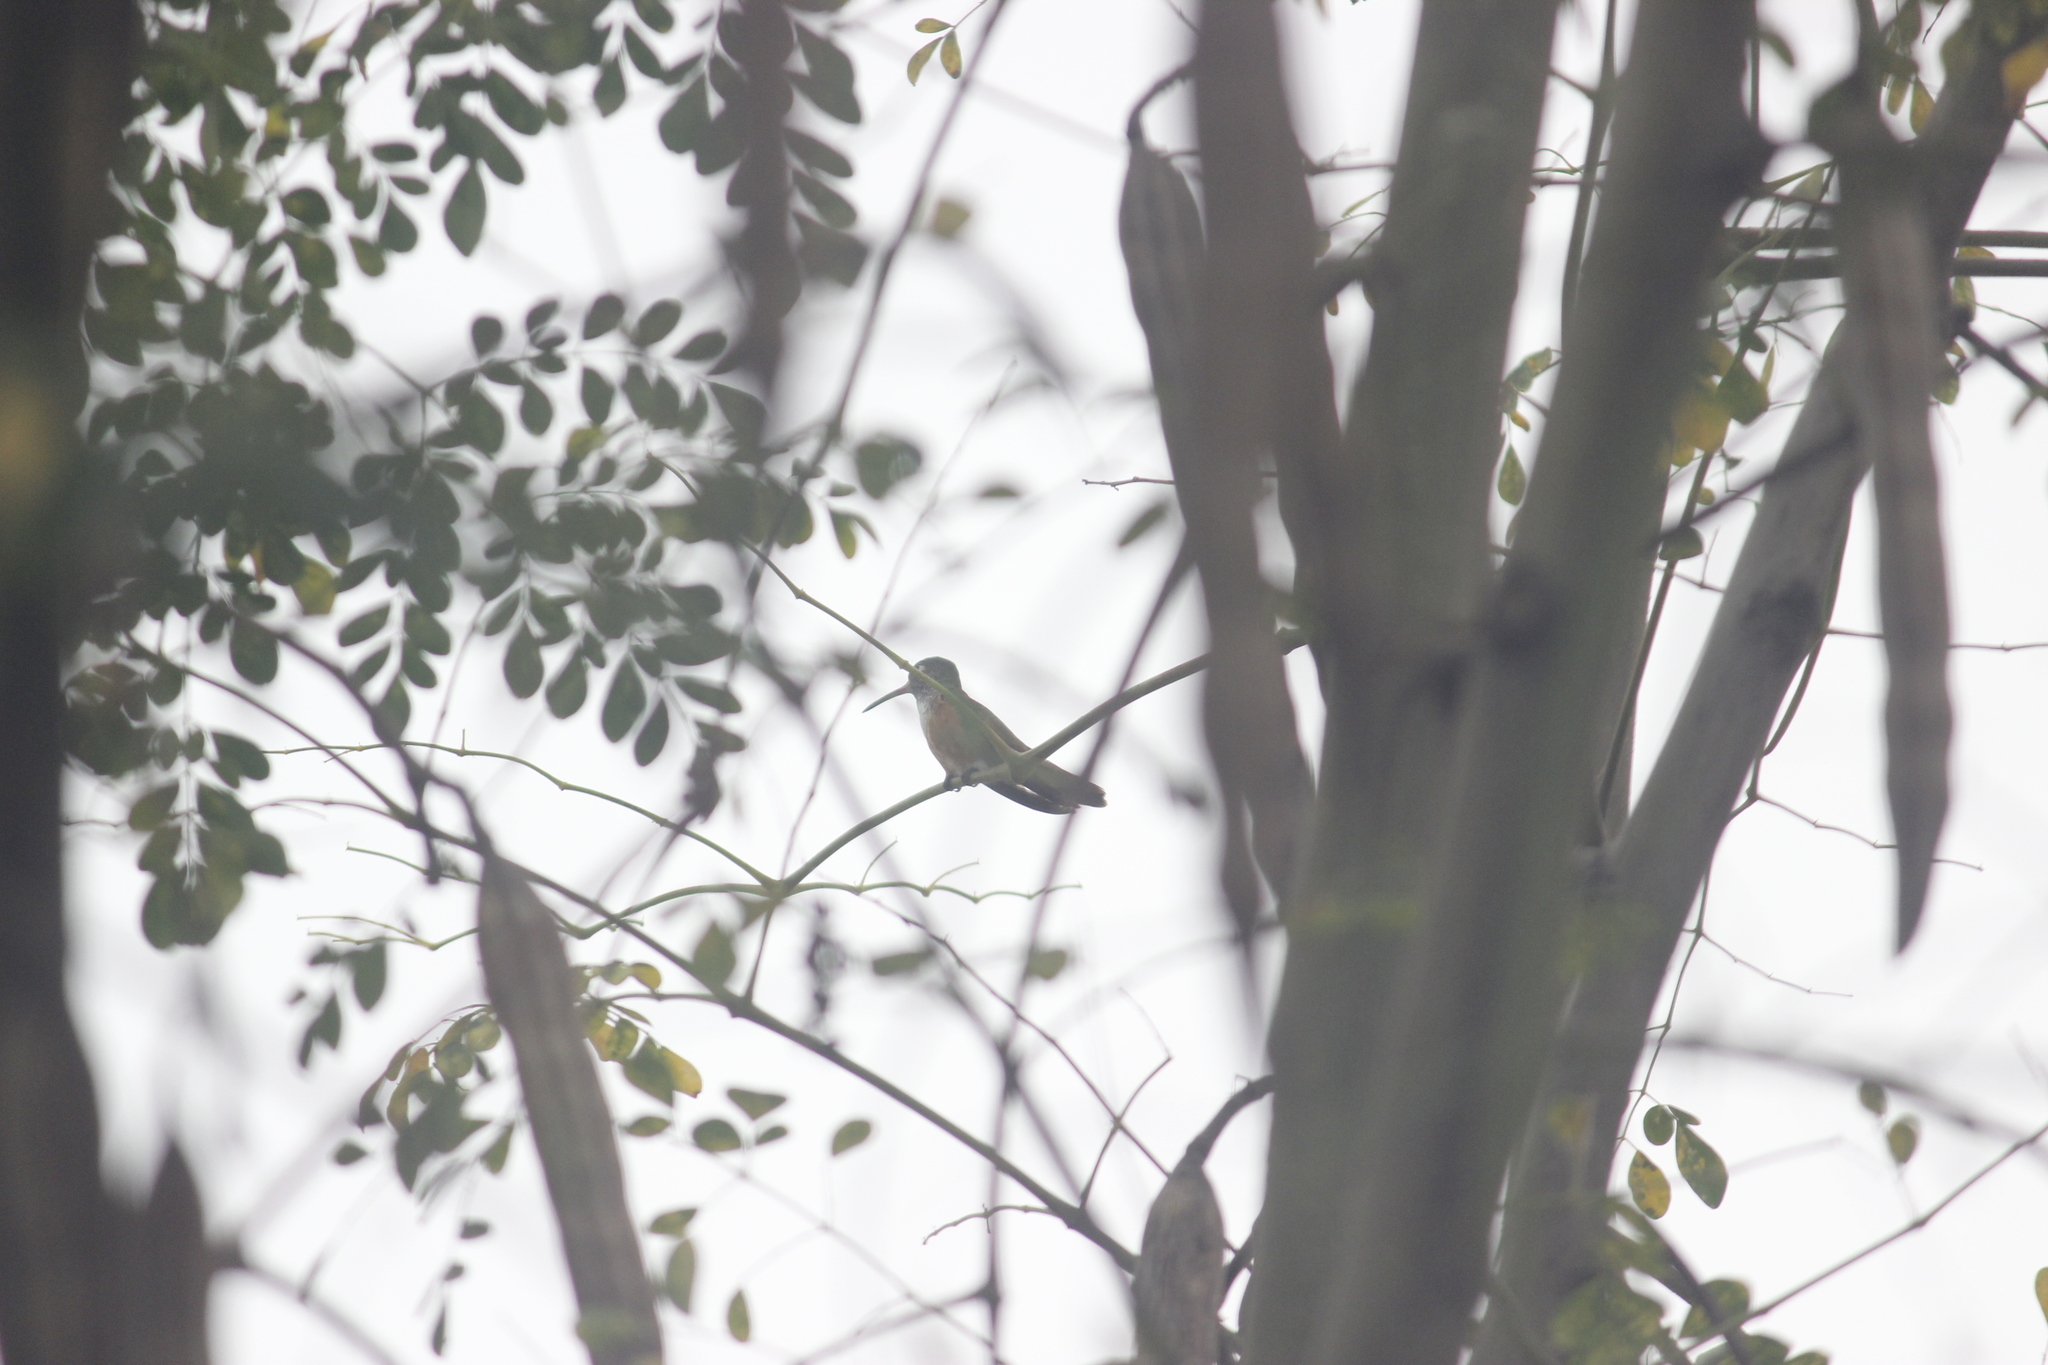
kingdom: Animalia
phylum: Chordata
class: Aves
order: Apodiformes
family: Trochilidae
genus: Amazilis
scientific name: Amazilis amazilia
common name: Amazilia hummingbird
